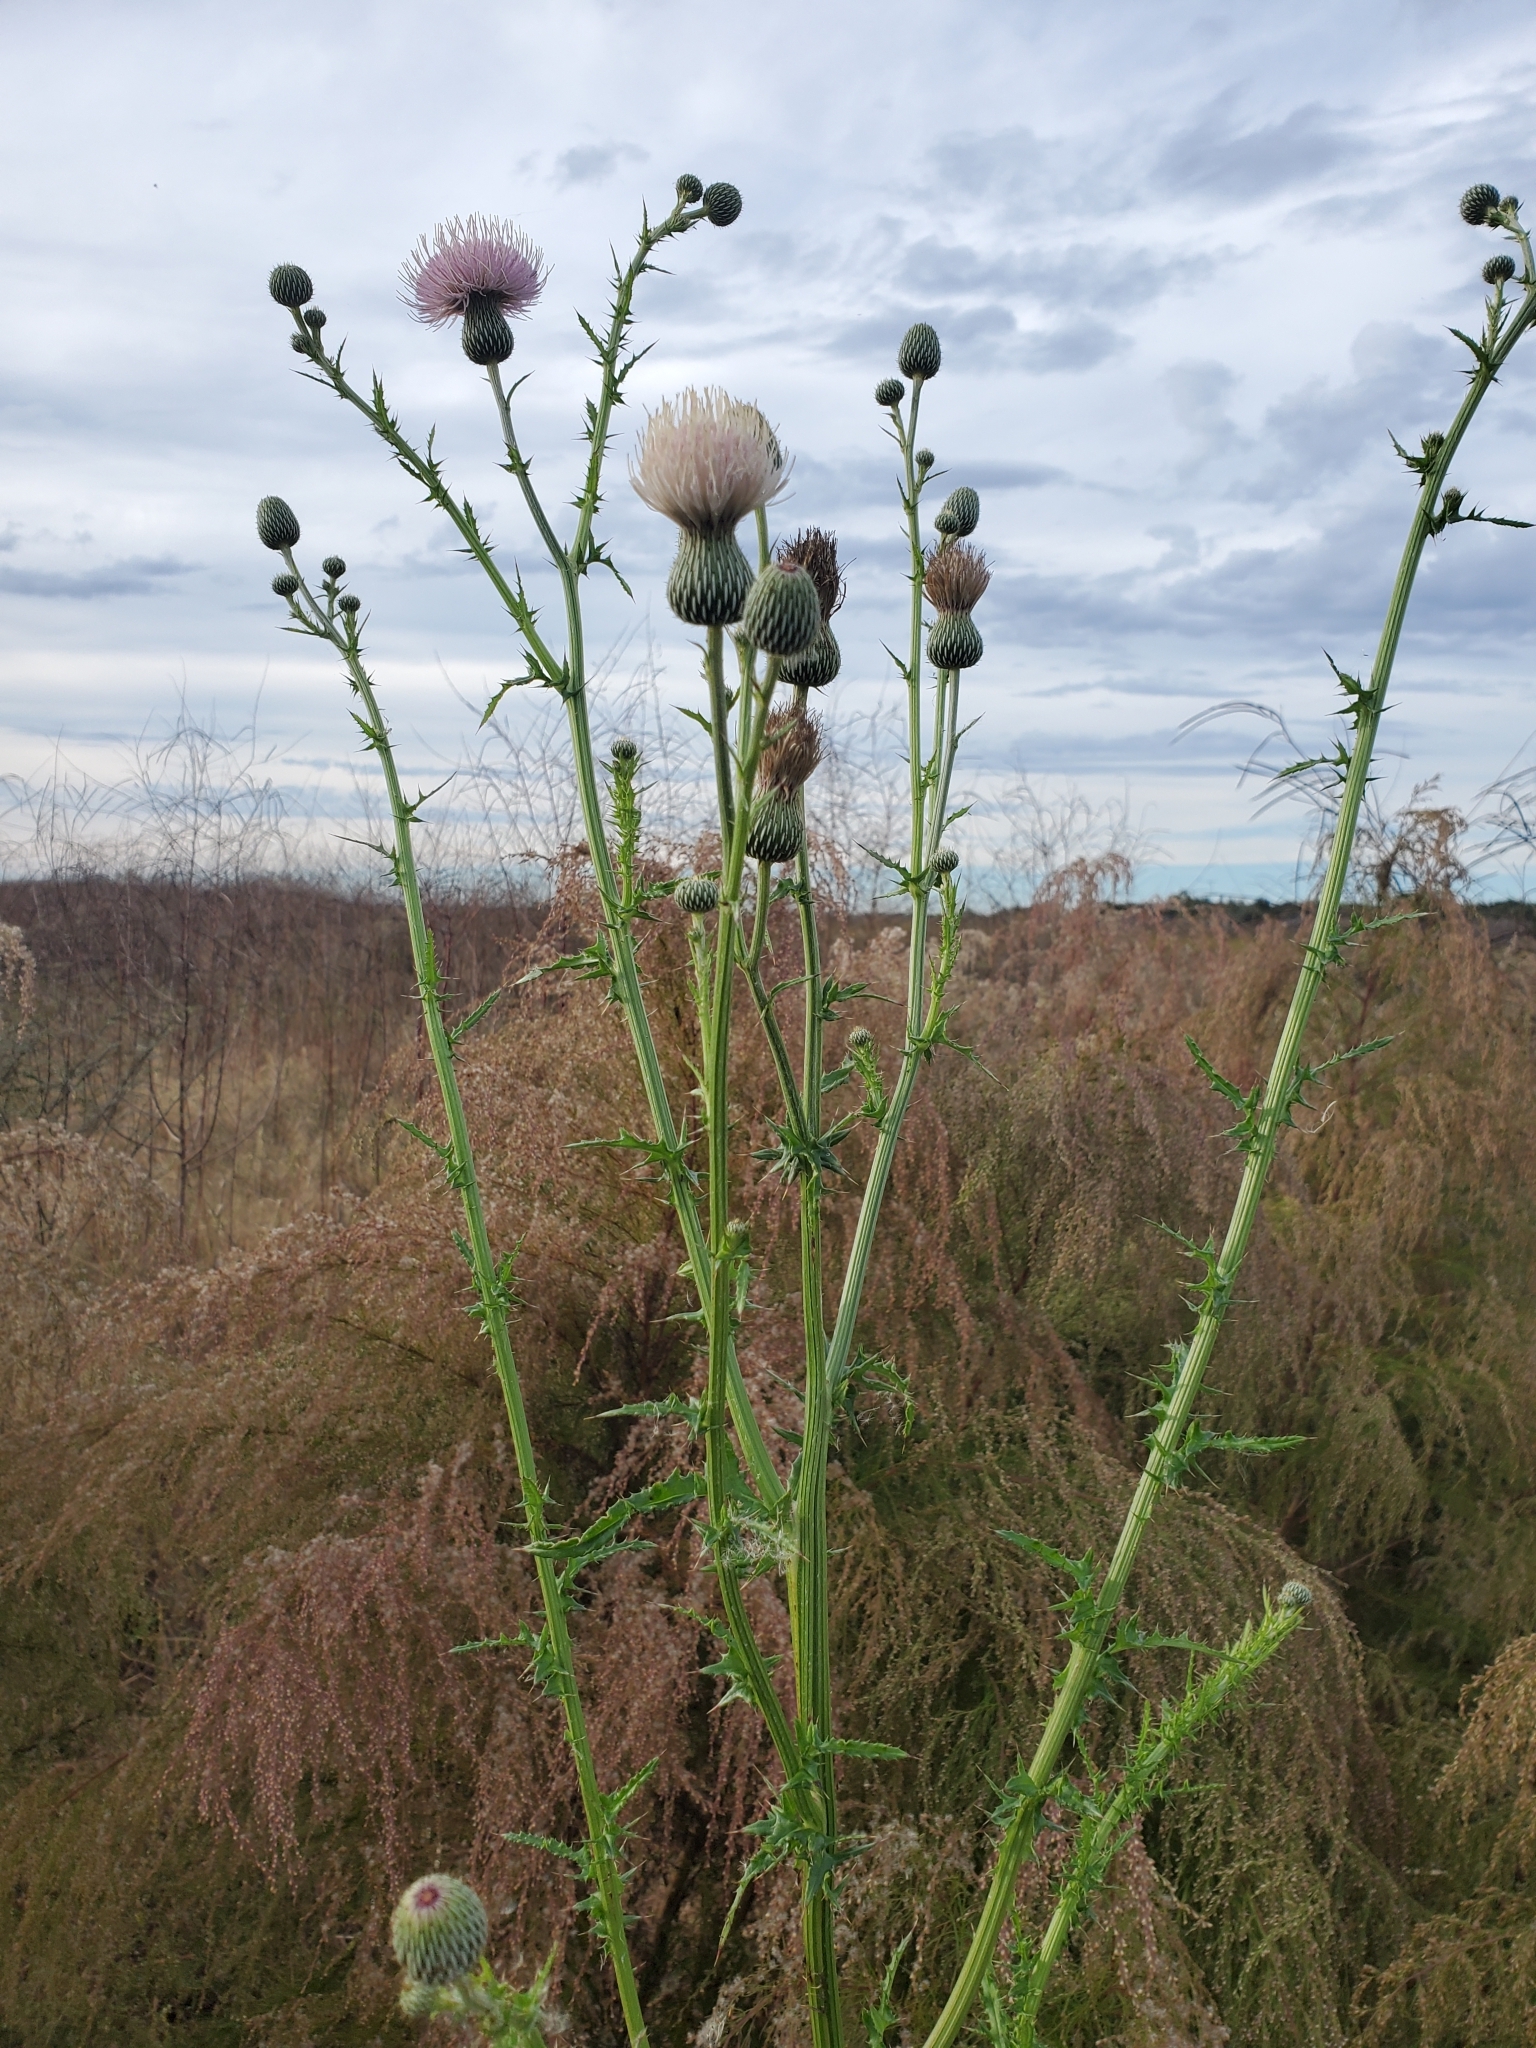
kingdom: Plantae
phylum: Tracheophyta
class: Magnoliopsida
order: Asterales
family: Asteraceae
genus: Cirsium
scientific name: Cirsium nuttalii
